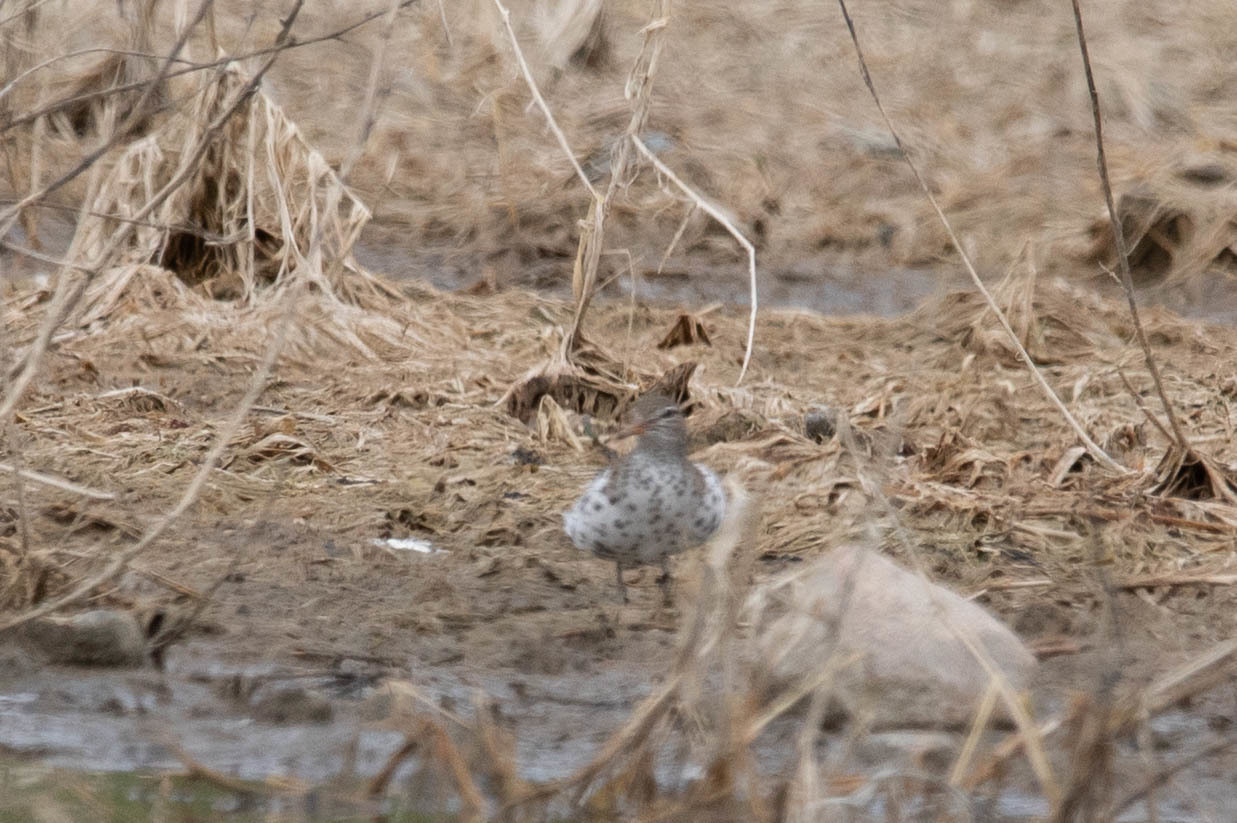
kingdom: Animalia
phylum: Chordata
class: Aves
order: Charadriiformes
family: Scolopacidae
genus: Actitis
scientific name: Actitis macularius
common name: Spotted sandpiper
